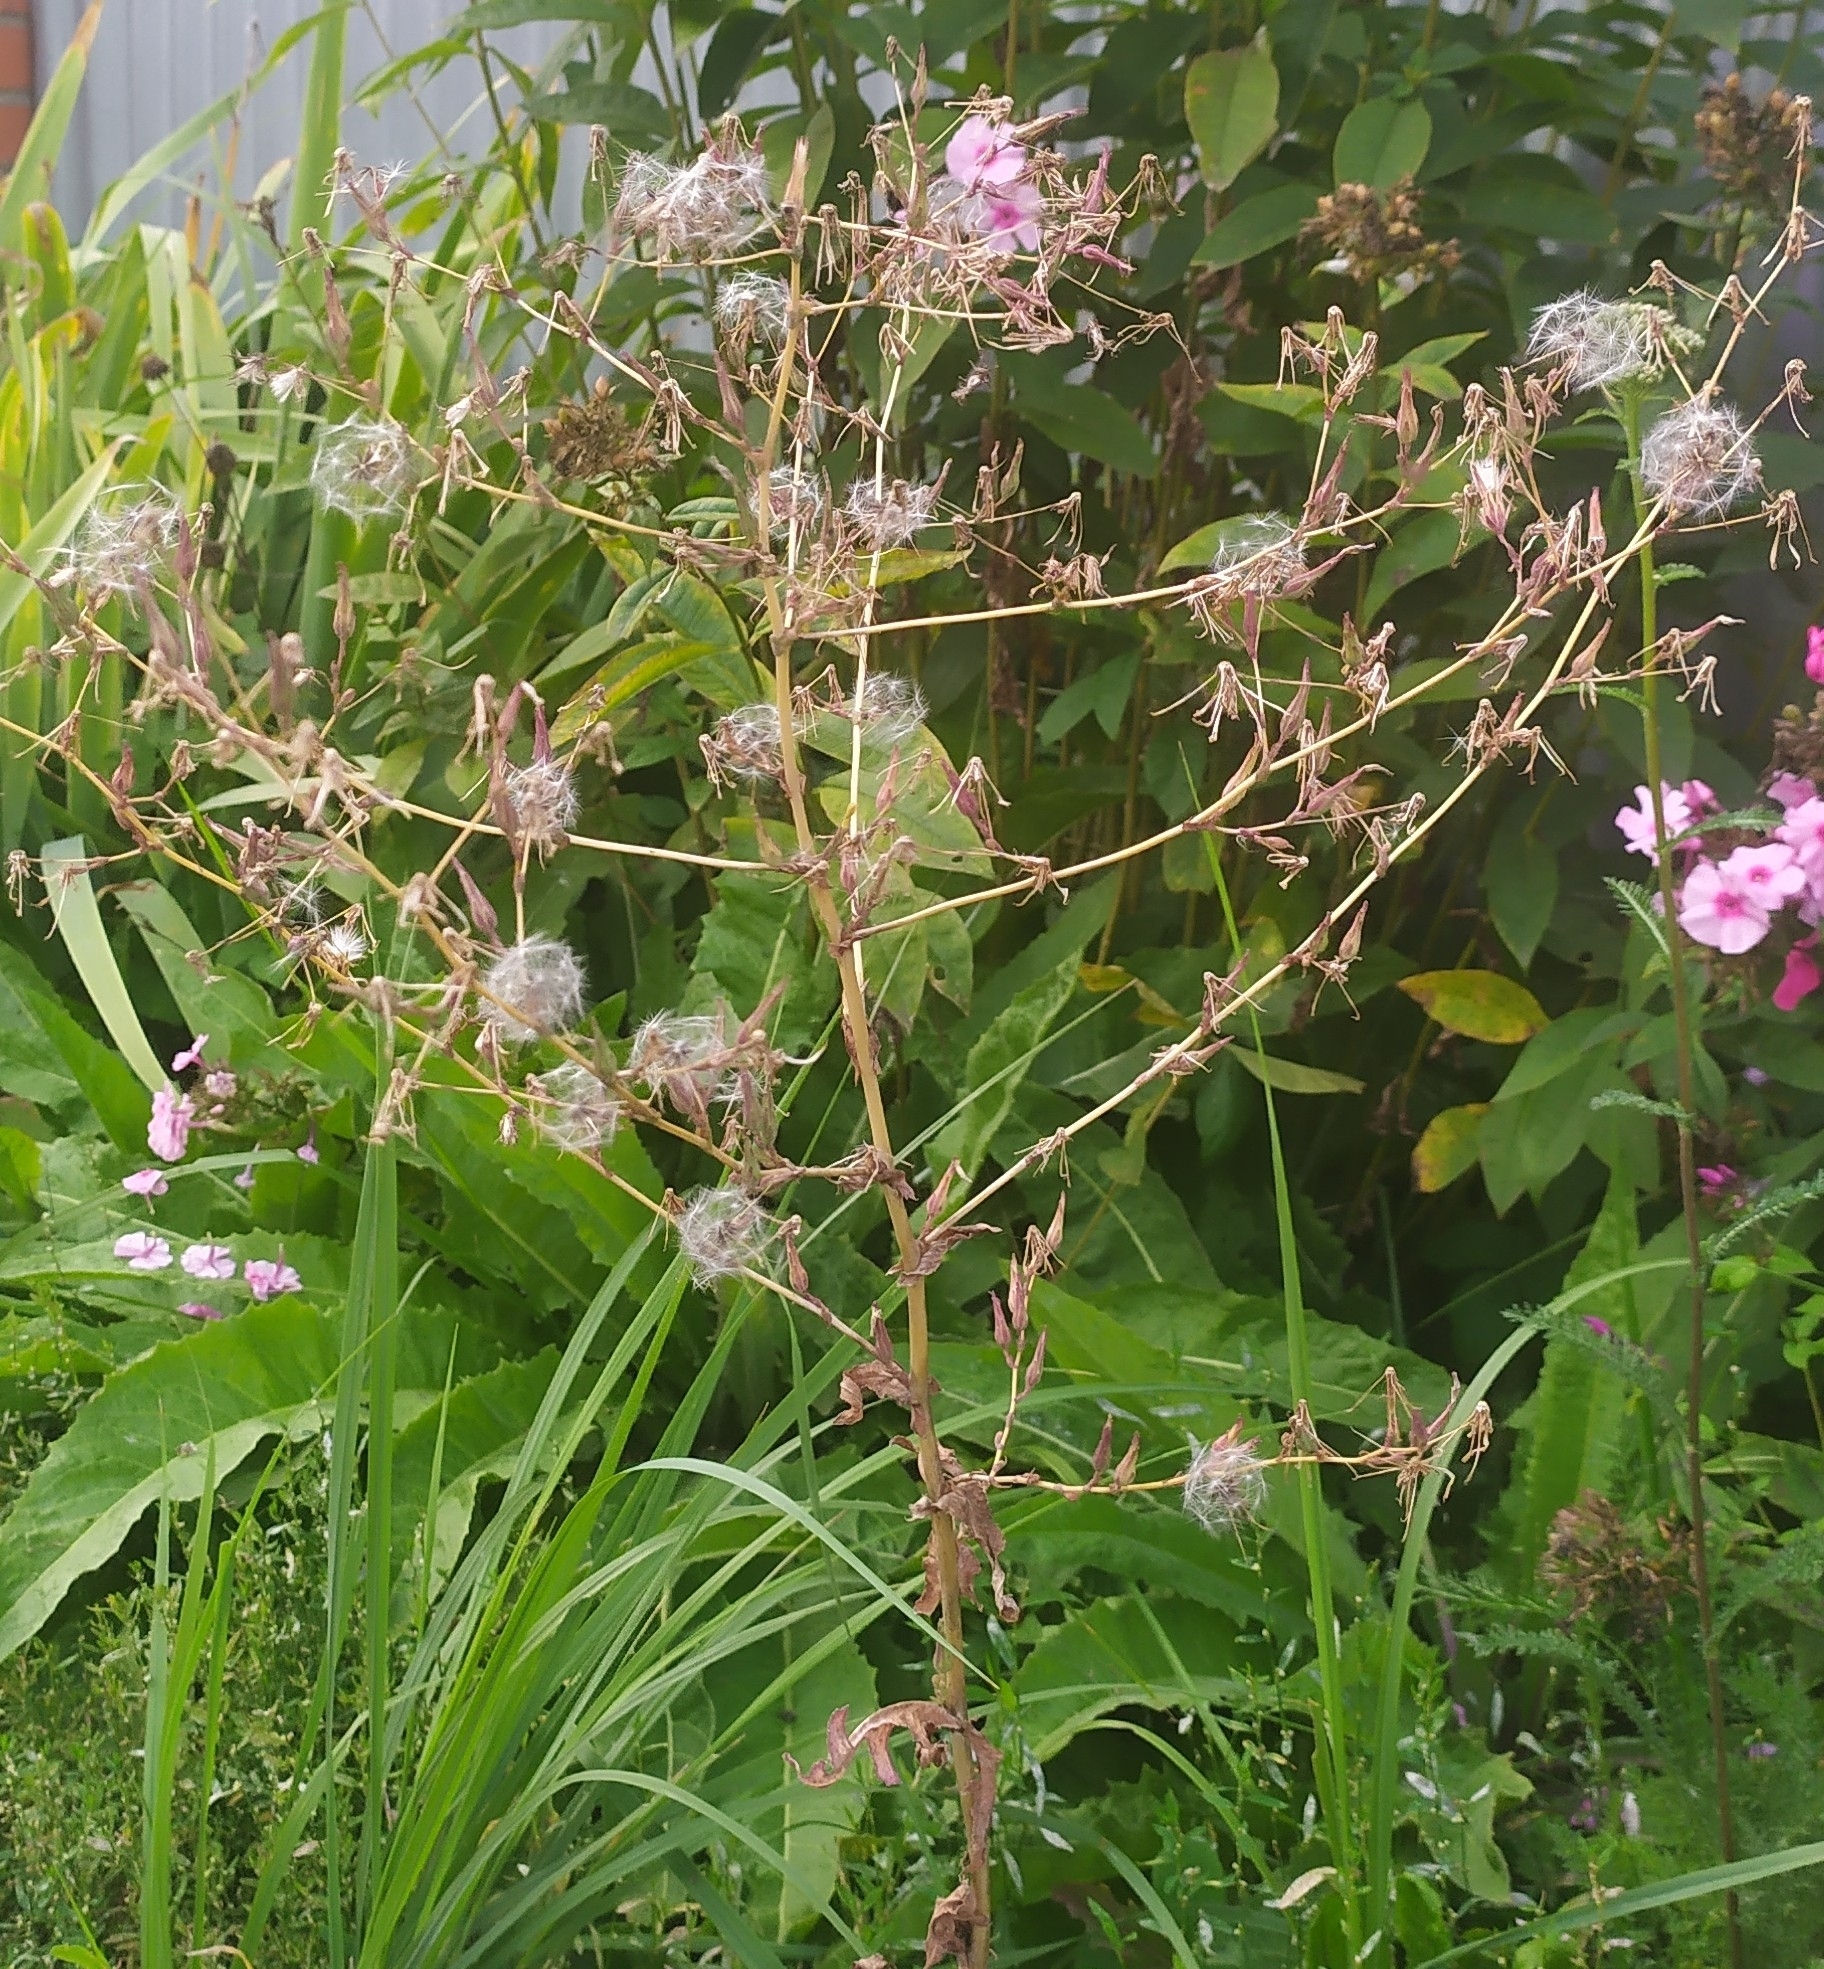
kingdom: Plantae
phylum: Tracheophyta
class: Magnoliopsida
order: Asterales
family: Asteraceae
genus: Lactuca
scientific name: Lactuca serriola
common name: Prickly lettuce
